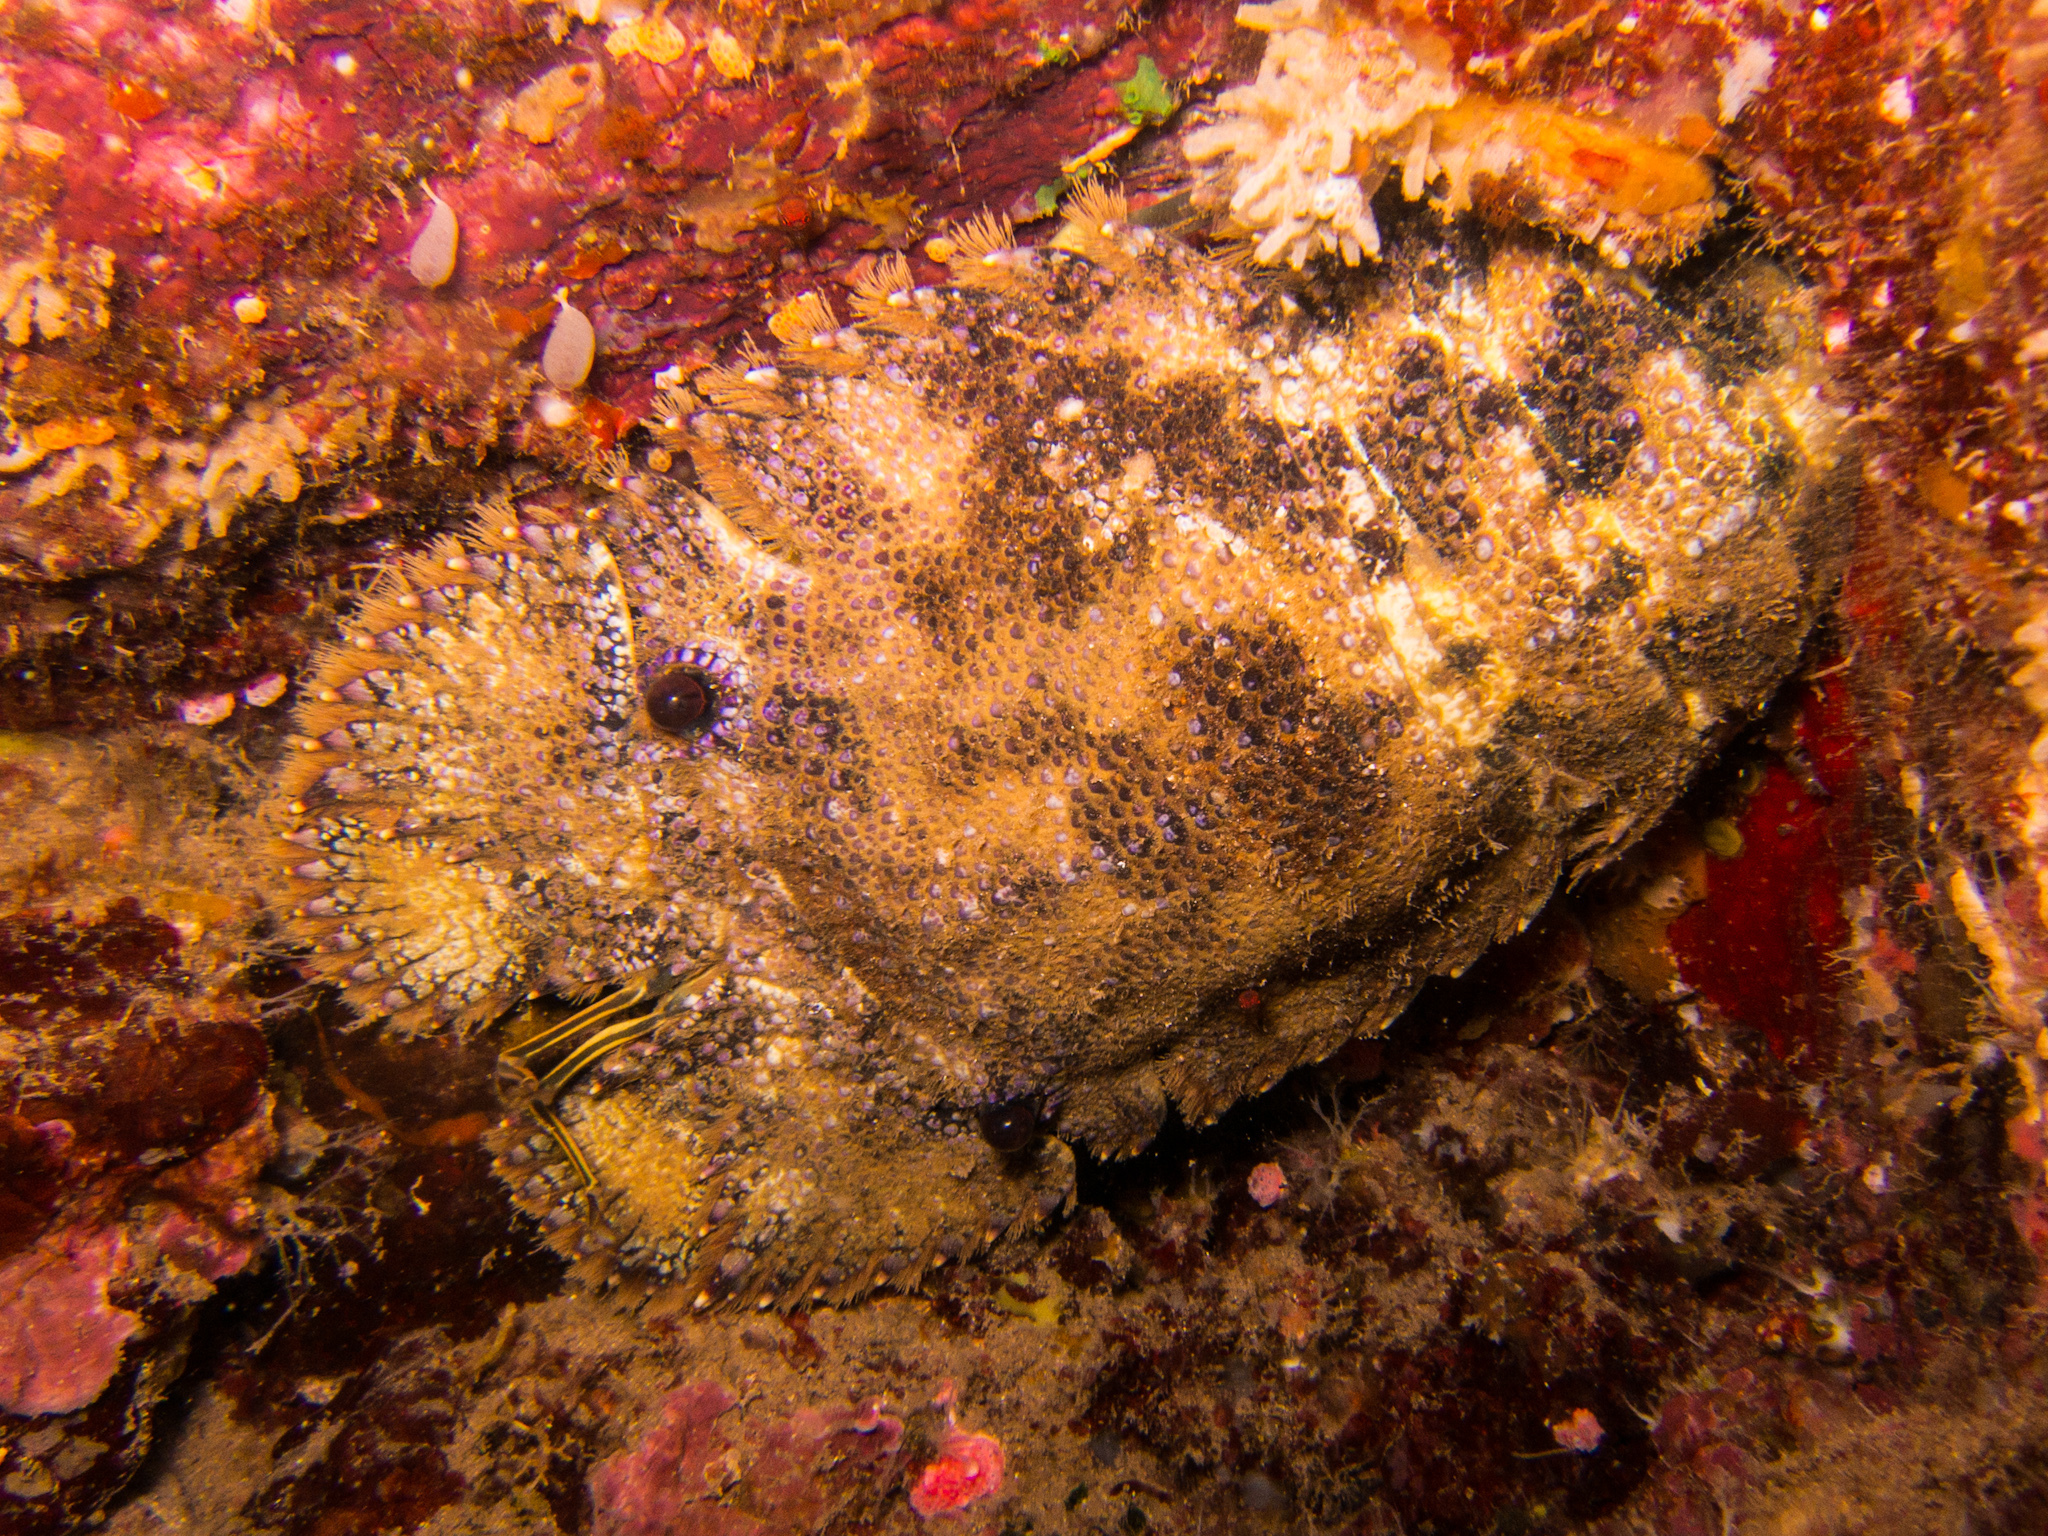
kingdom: Animalia
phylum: Arthropoda
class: Malacostraca
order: Decapoda
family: Scyllaridae
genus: Parribacus
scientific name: Parribacus antarcticus
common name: Sculptured mitten lobster
